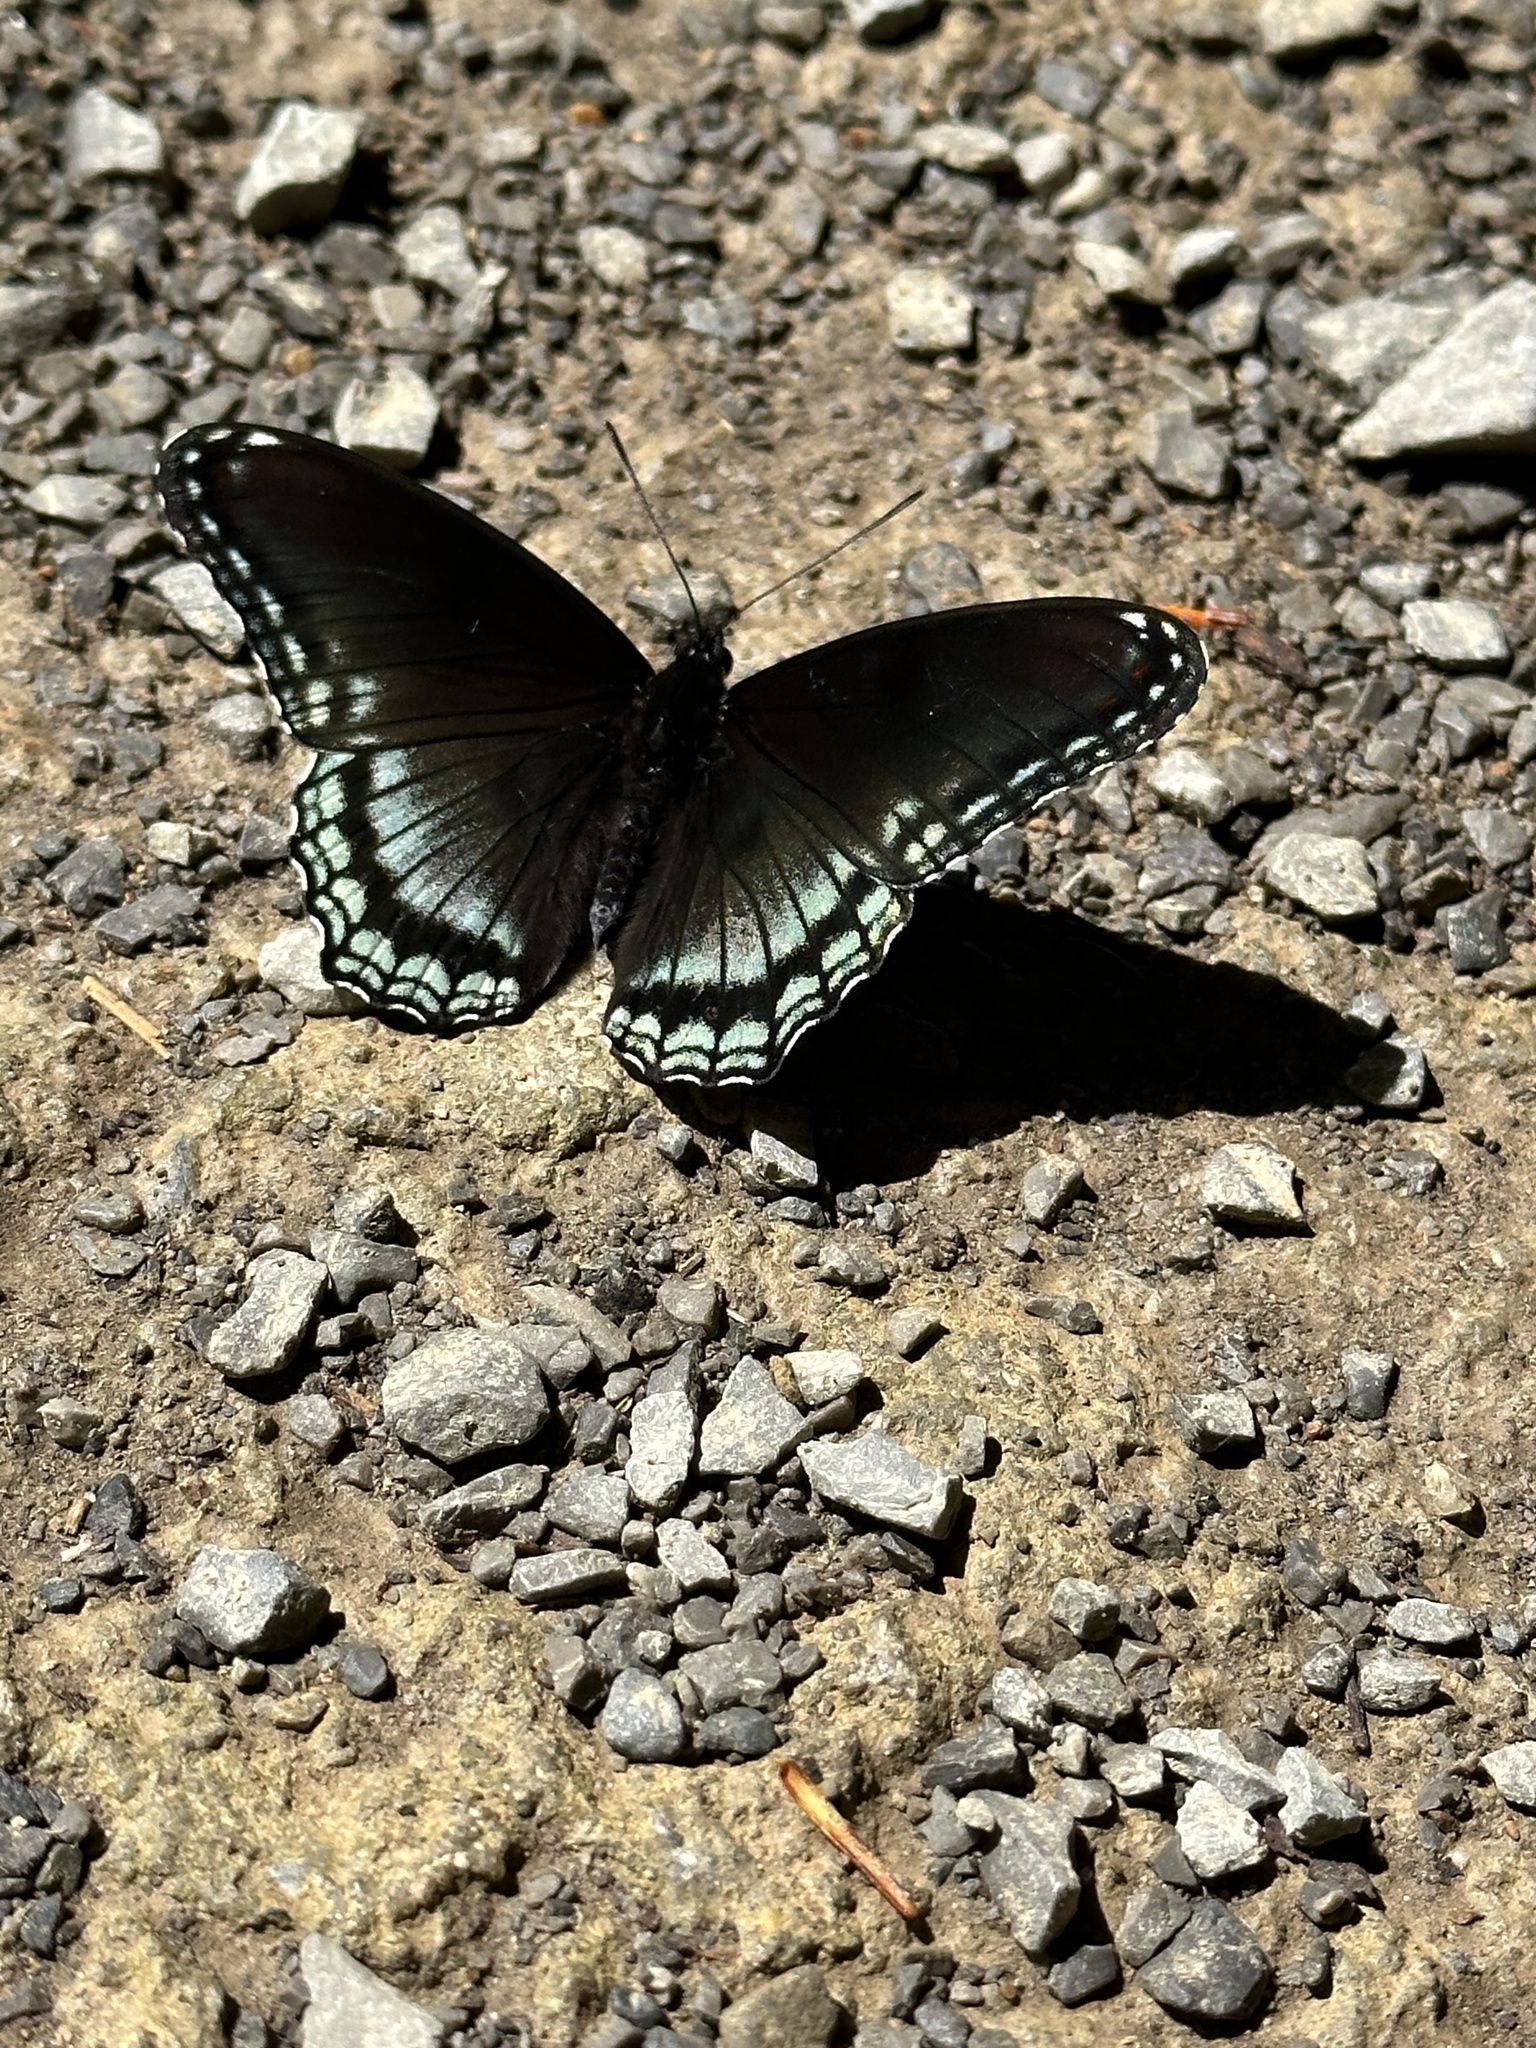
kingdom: Animalia
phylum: Arthropoda
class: Insecta
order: Lepidoptera
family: Nymphalidae
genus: Limenitis
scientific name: Limenitis arthemis
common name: Red-spotted admiral
